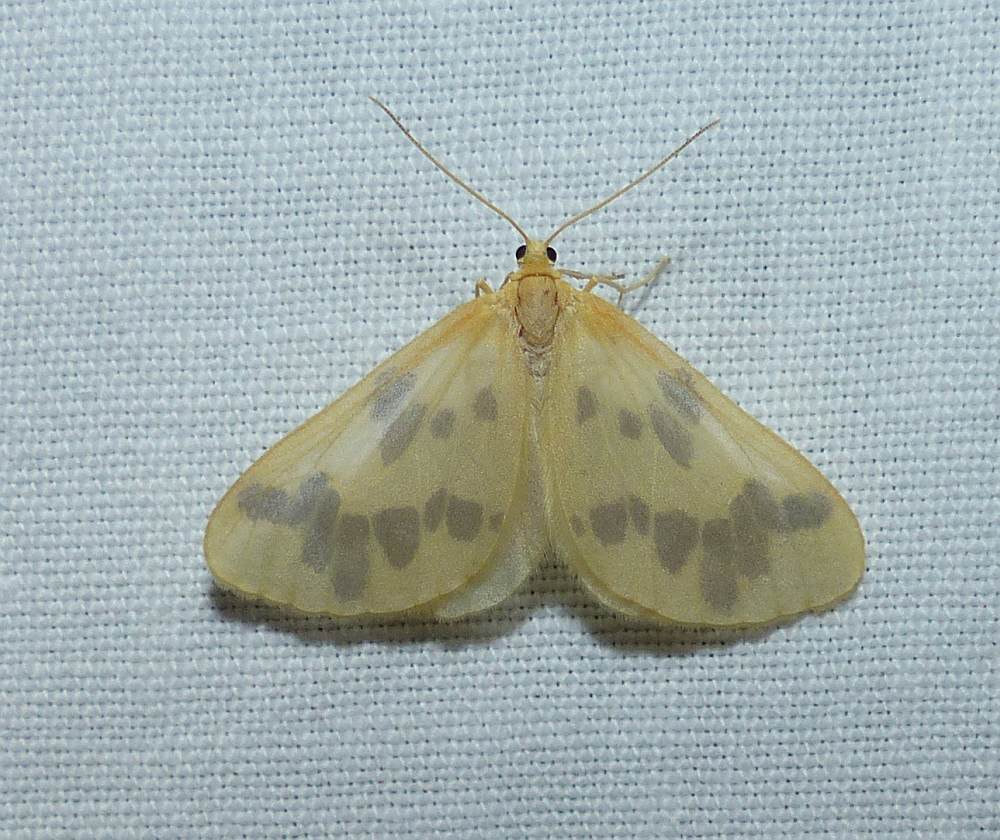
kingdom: Animalia
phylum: Arthropoda
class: Insecta
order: Lepidoptera
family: Geometridae
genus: Eubaphe
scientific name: Eubaphe mendica
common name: Beggar
